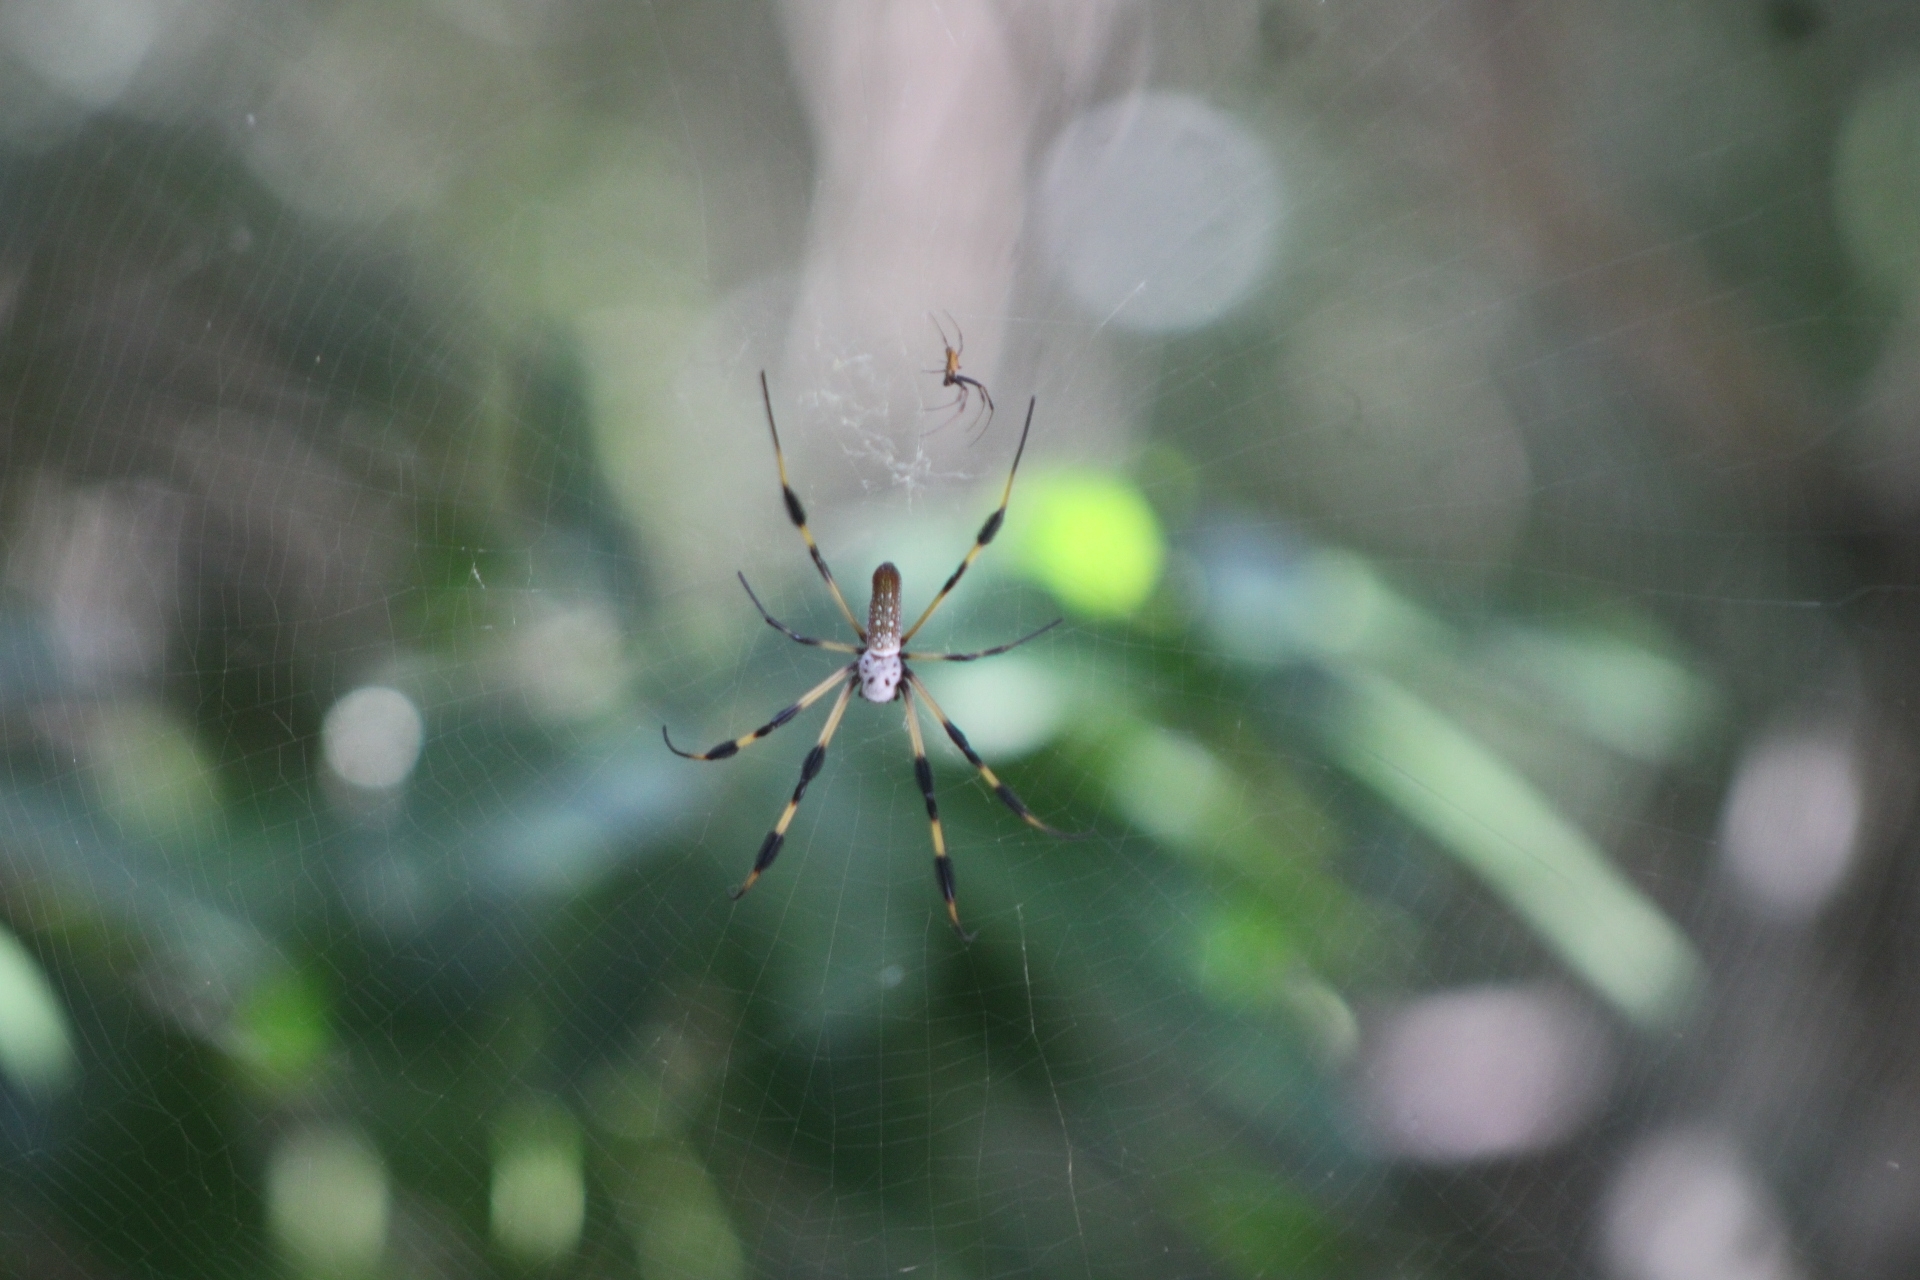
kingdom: Animalia
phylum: Arthropoda
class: Arachnida
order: Araneae
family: Araneidae
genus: Trichonephila
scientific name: Trichonephila clavipes
